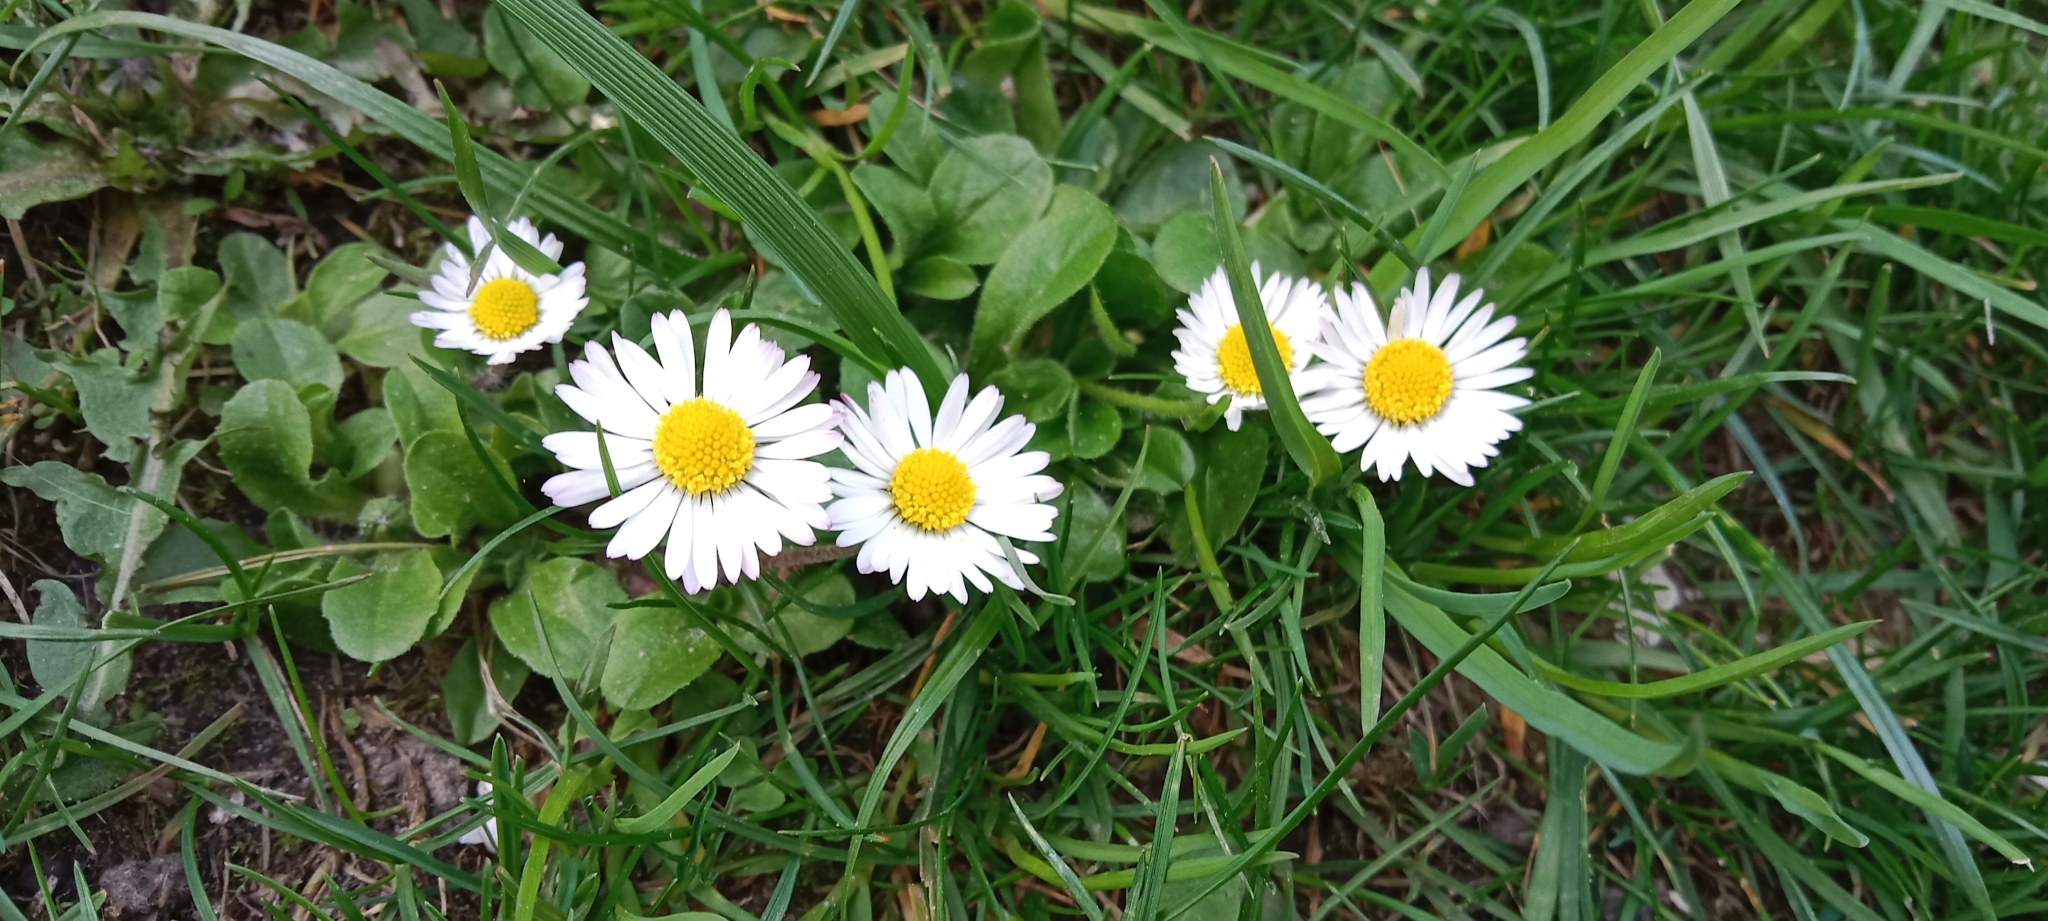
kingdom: Plantae
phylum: Tracheophyta
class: Magnoliopsida
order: Asterales
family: Asteraceae
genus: Bellis
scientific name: Bellis perennis
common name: Lawndaisy
